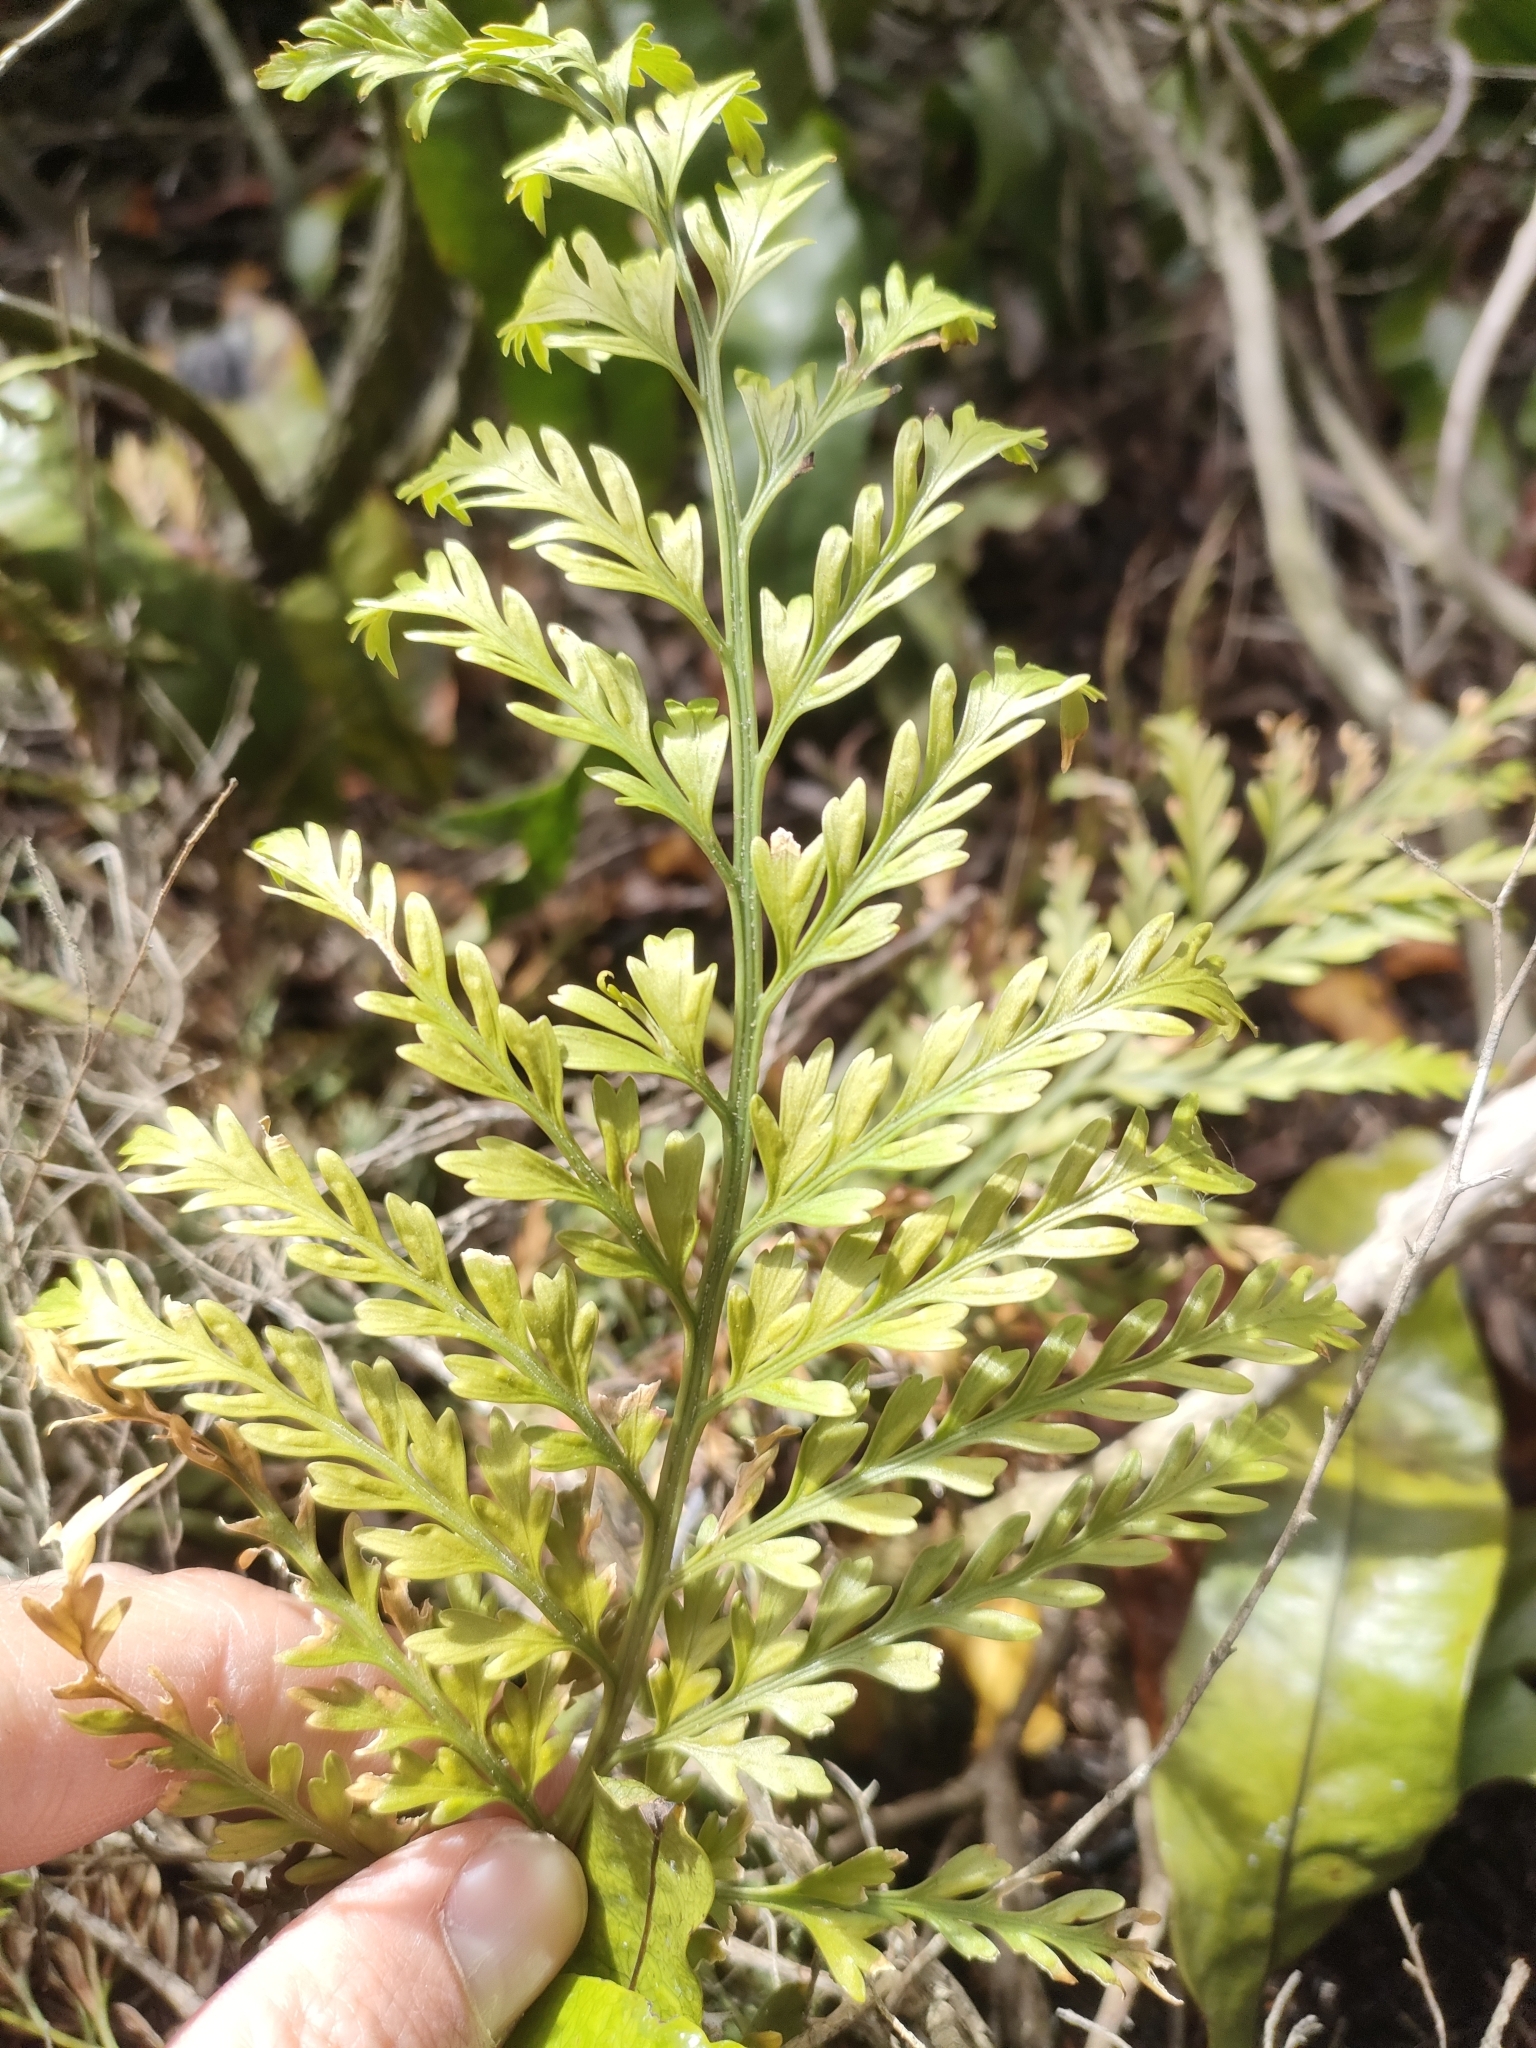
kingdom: Plantae
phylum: Tracheophyta
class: Polypodiopsida
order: Polypodiales
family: Aspleniaceae
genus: Asplenium
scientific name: Asplenium appendiculatum
